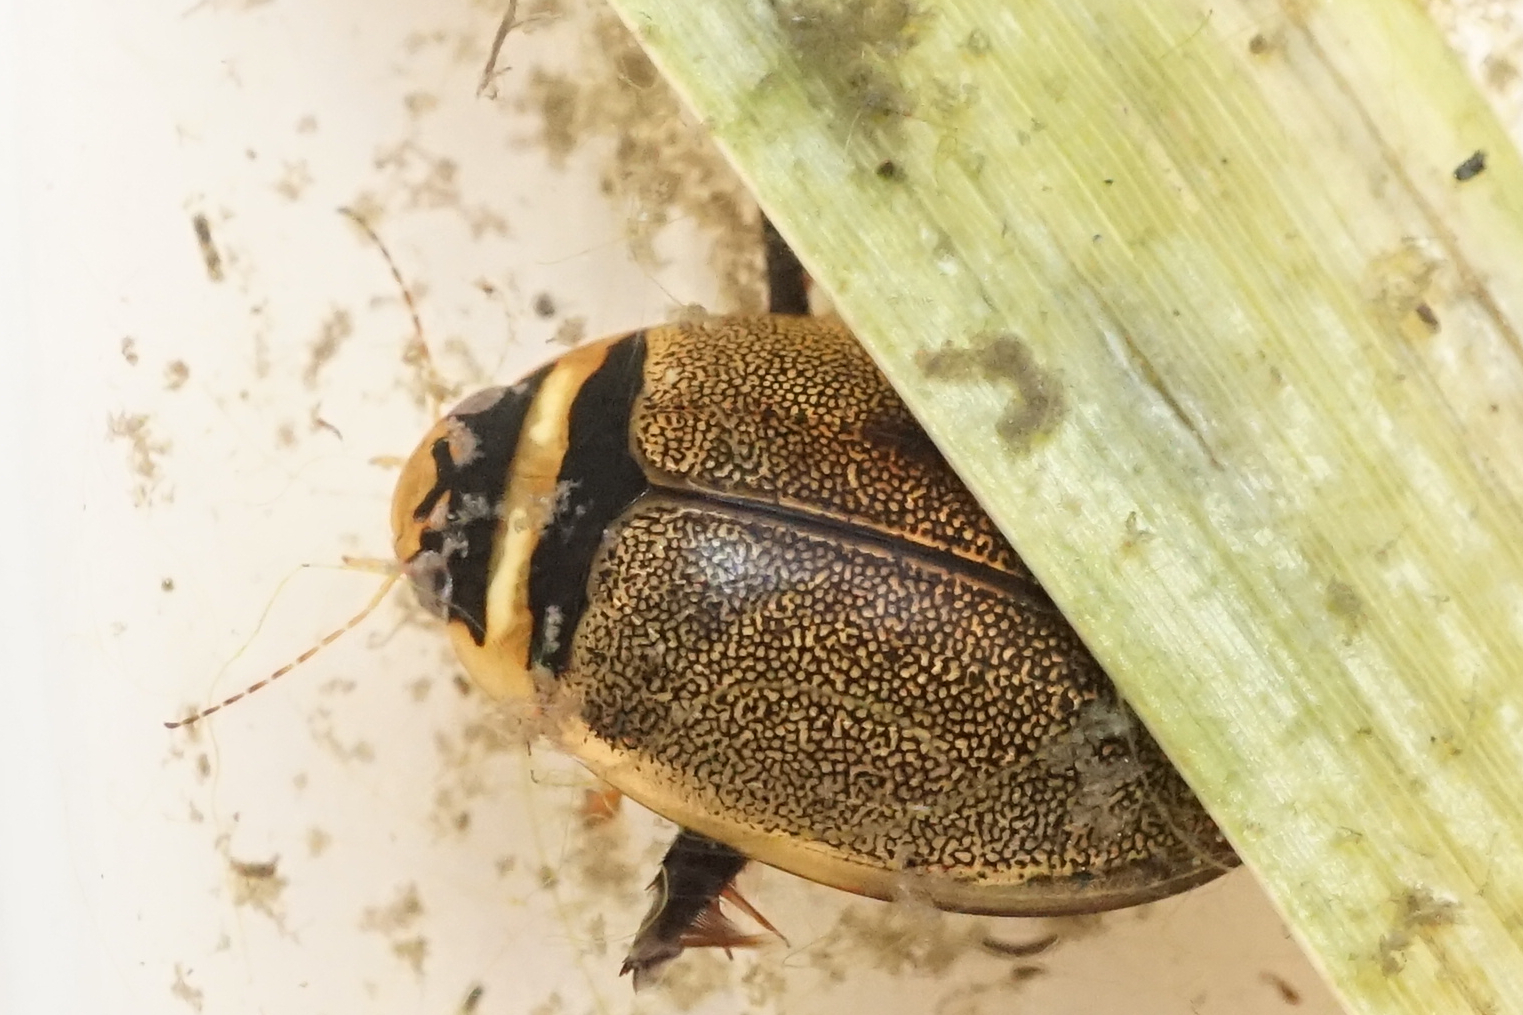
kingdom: Animalia
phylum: Arthropoda
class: Insecta
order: Coleoptera
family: Dytiscidae
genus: Graphoderus
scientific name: Graphoderus adamsii
